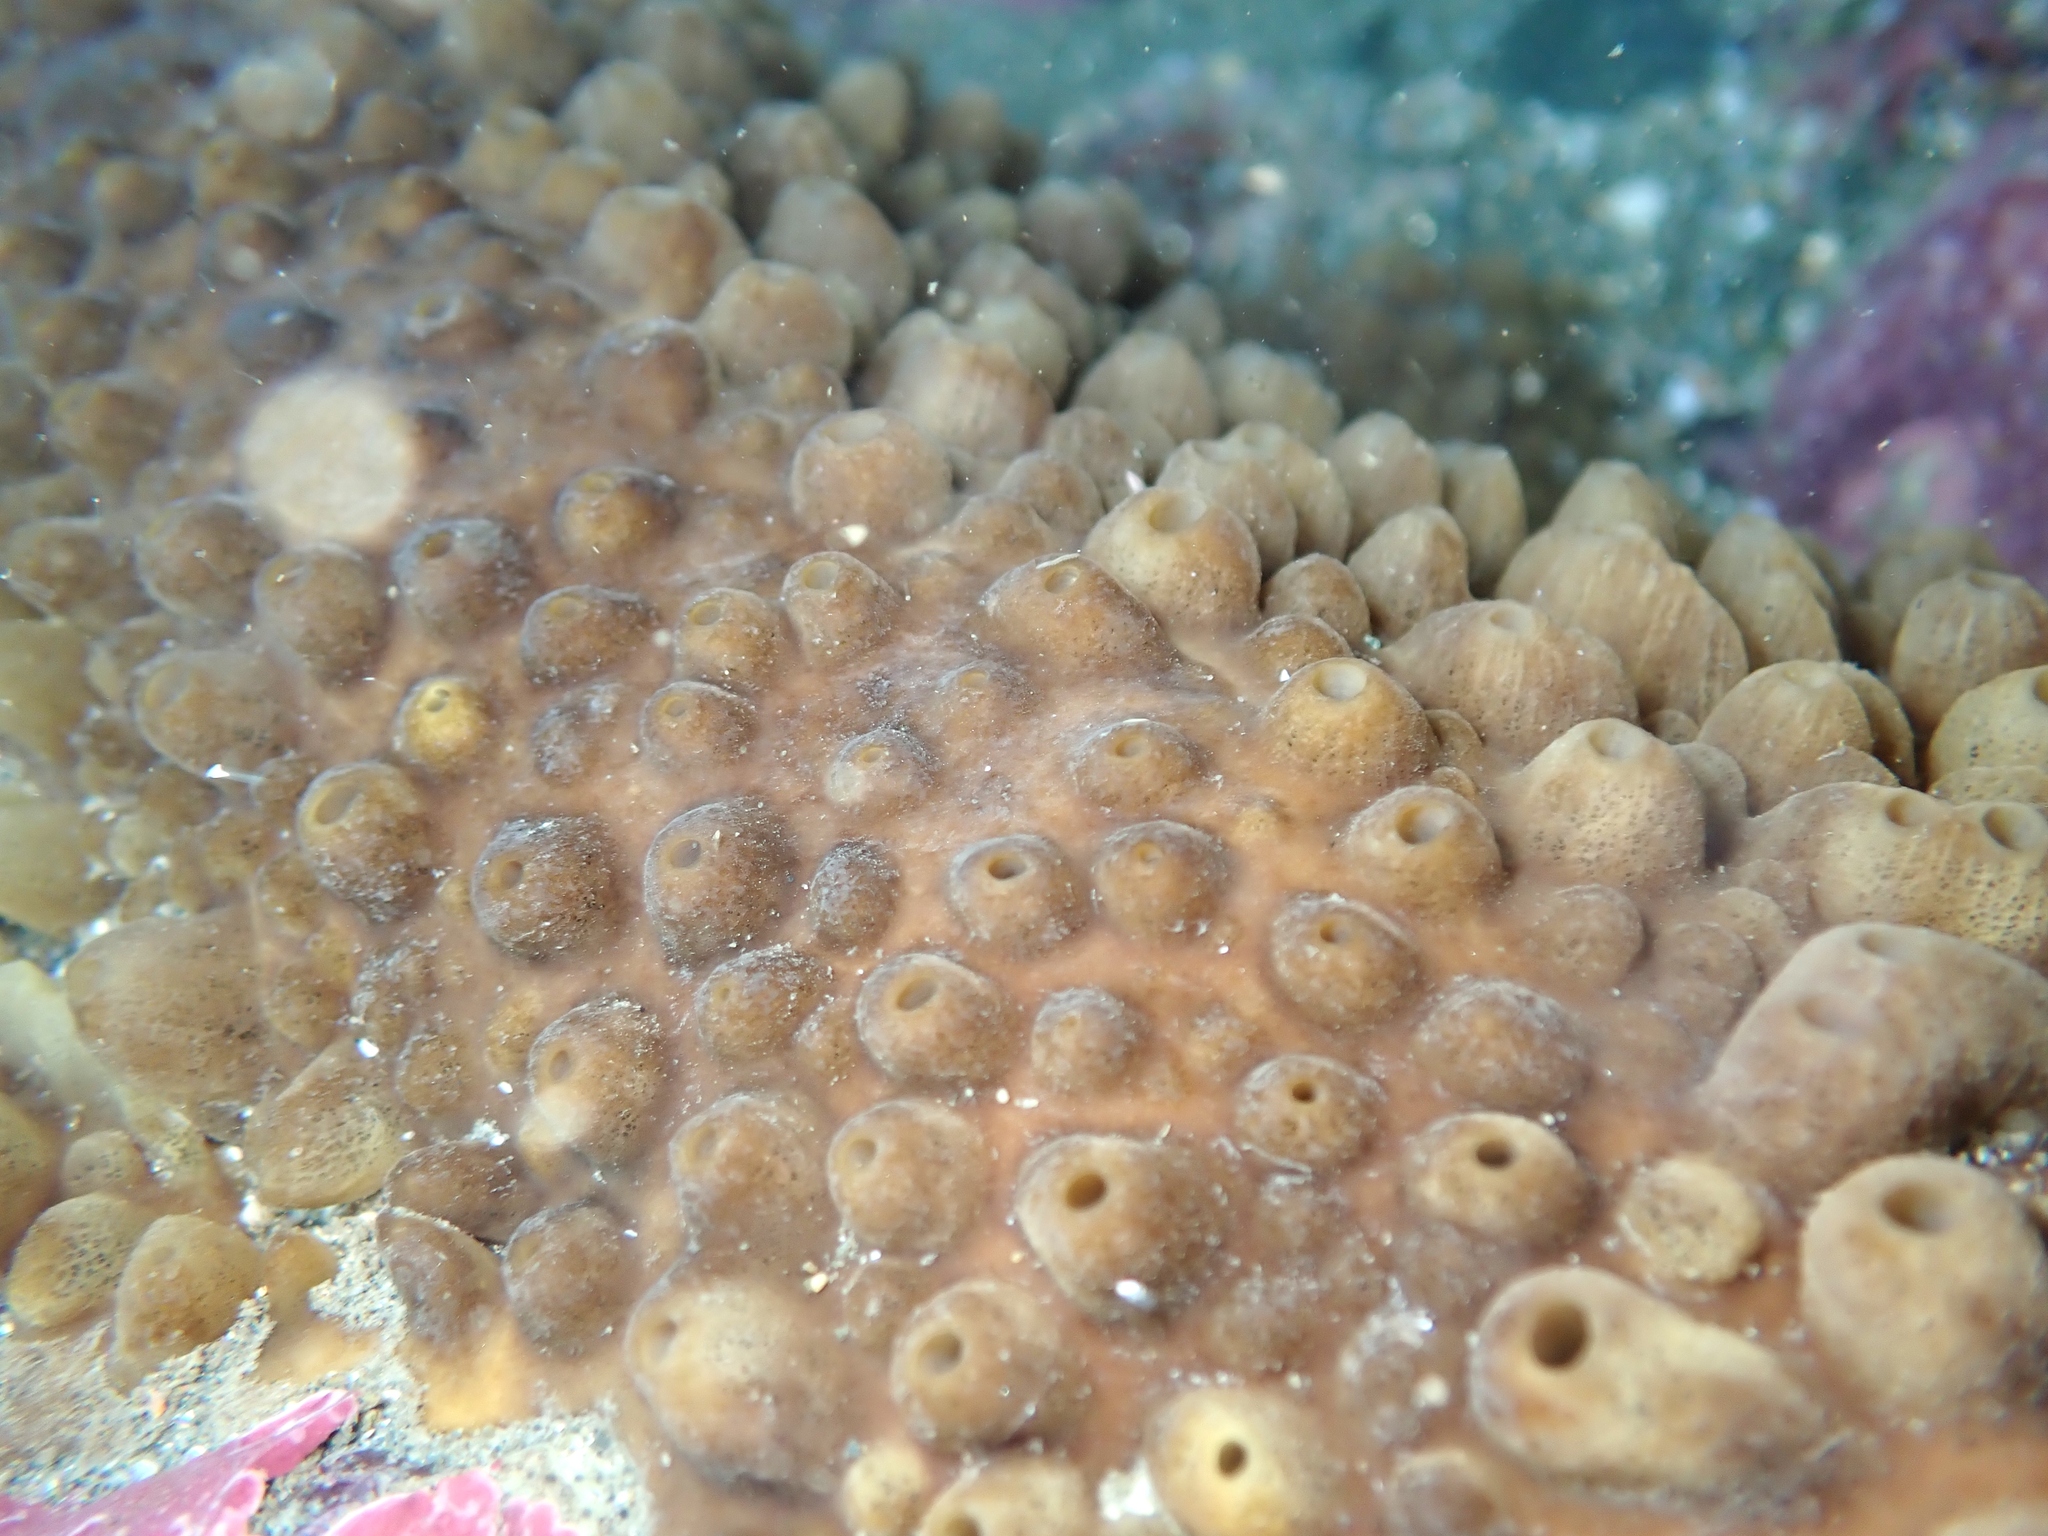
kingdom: Animalia
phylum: Porifera
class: Demospongiae
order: Polymastiida
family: Polymastiidae
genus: Polymastia
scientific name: Polymastia fusca
